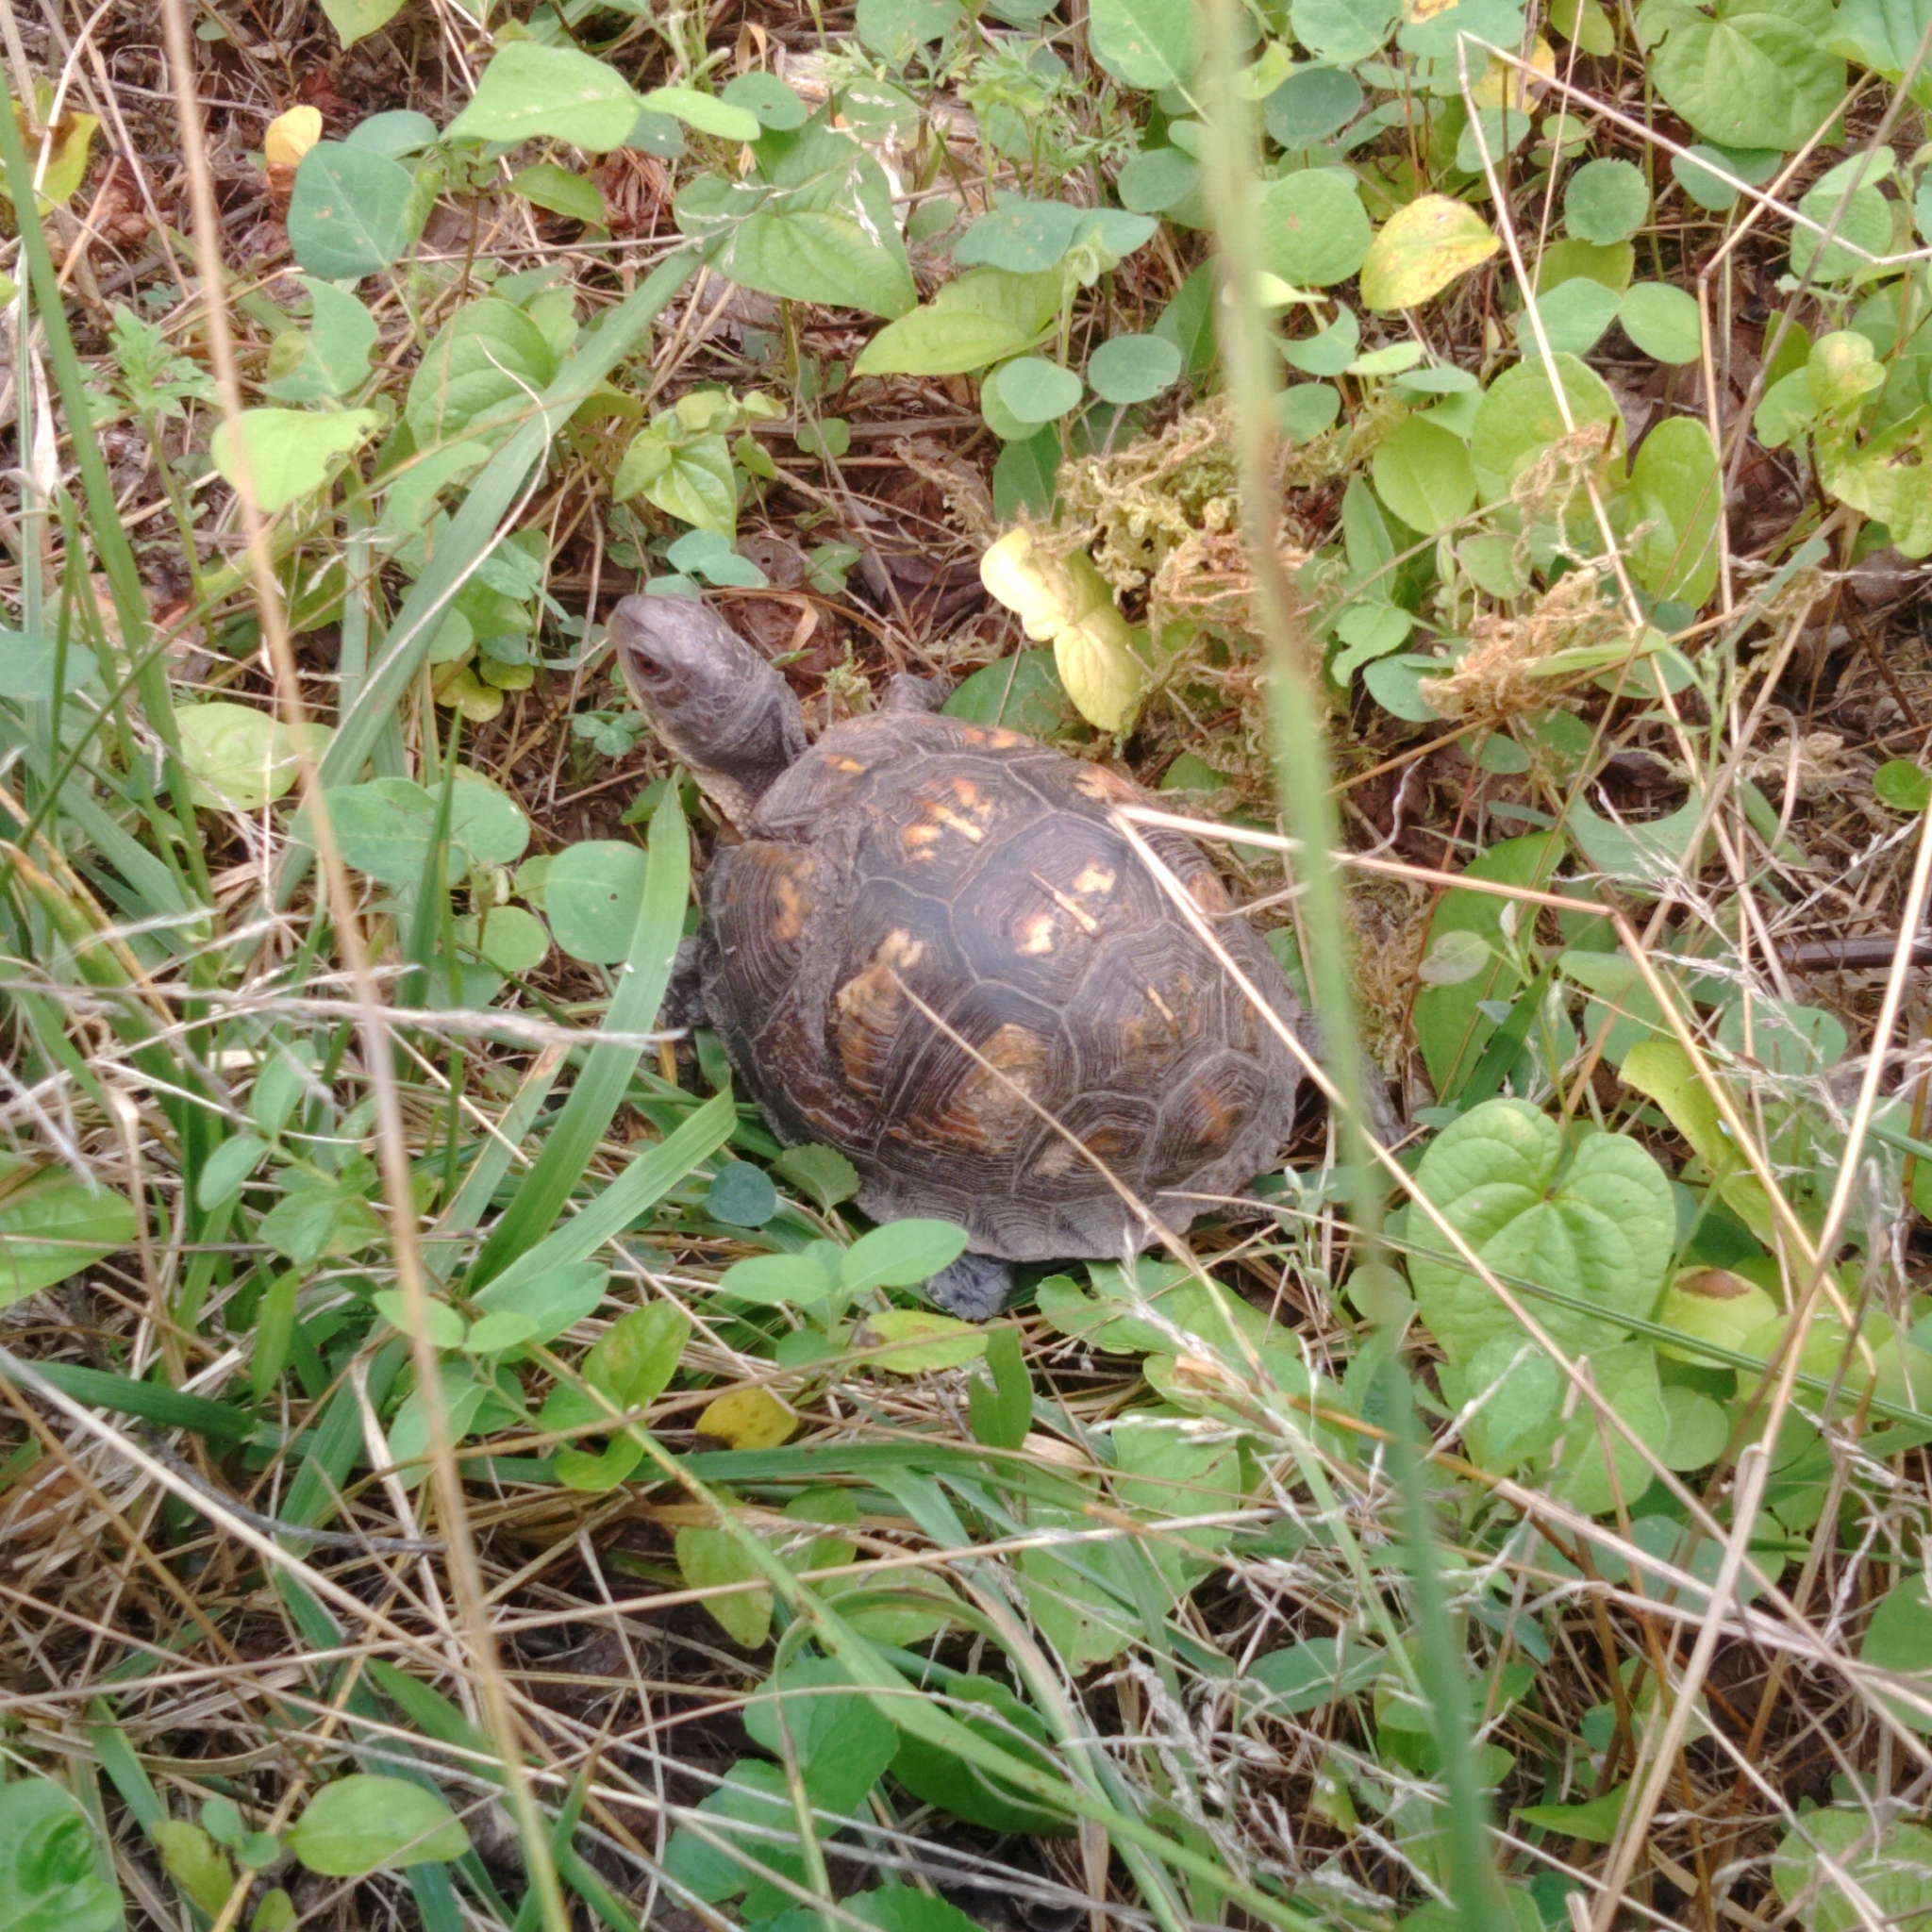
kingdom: Animalia
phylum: Chordata
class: Testudines
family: Emydidae
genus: Terrapene
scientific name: Terrapene carolina
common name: Common box turtle
